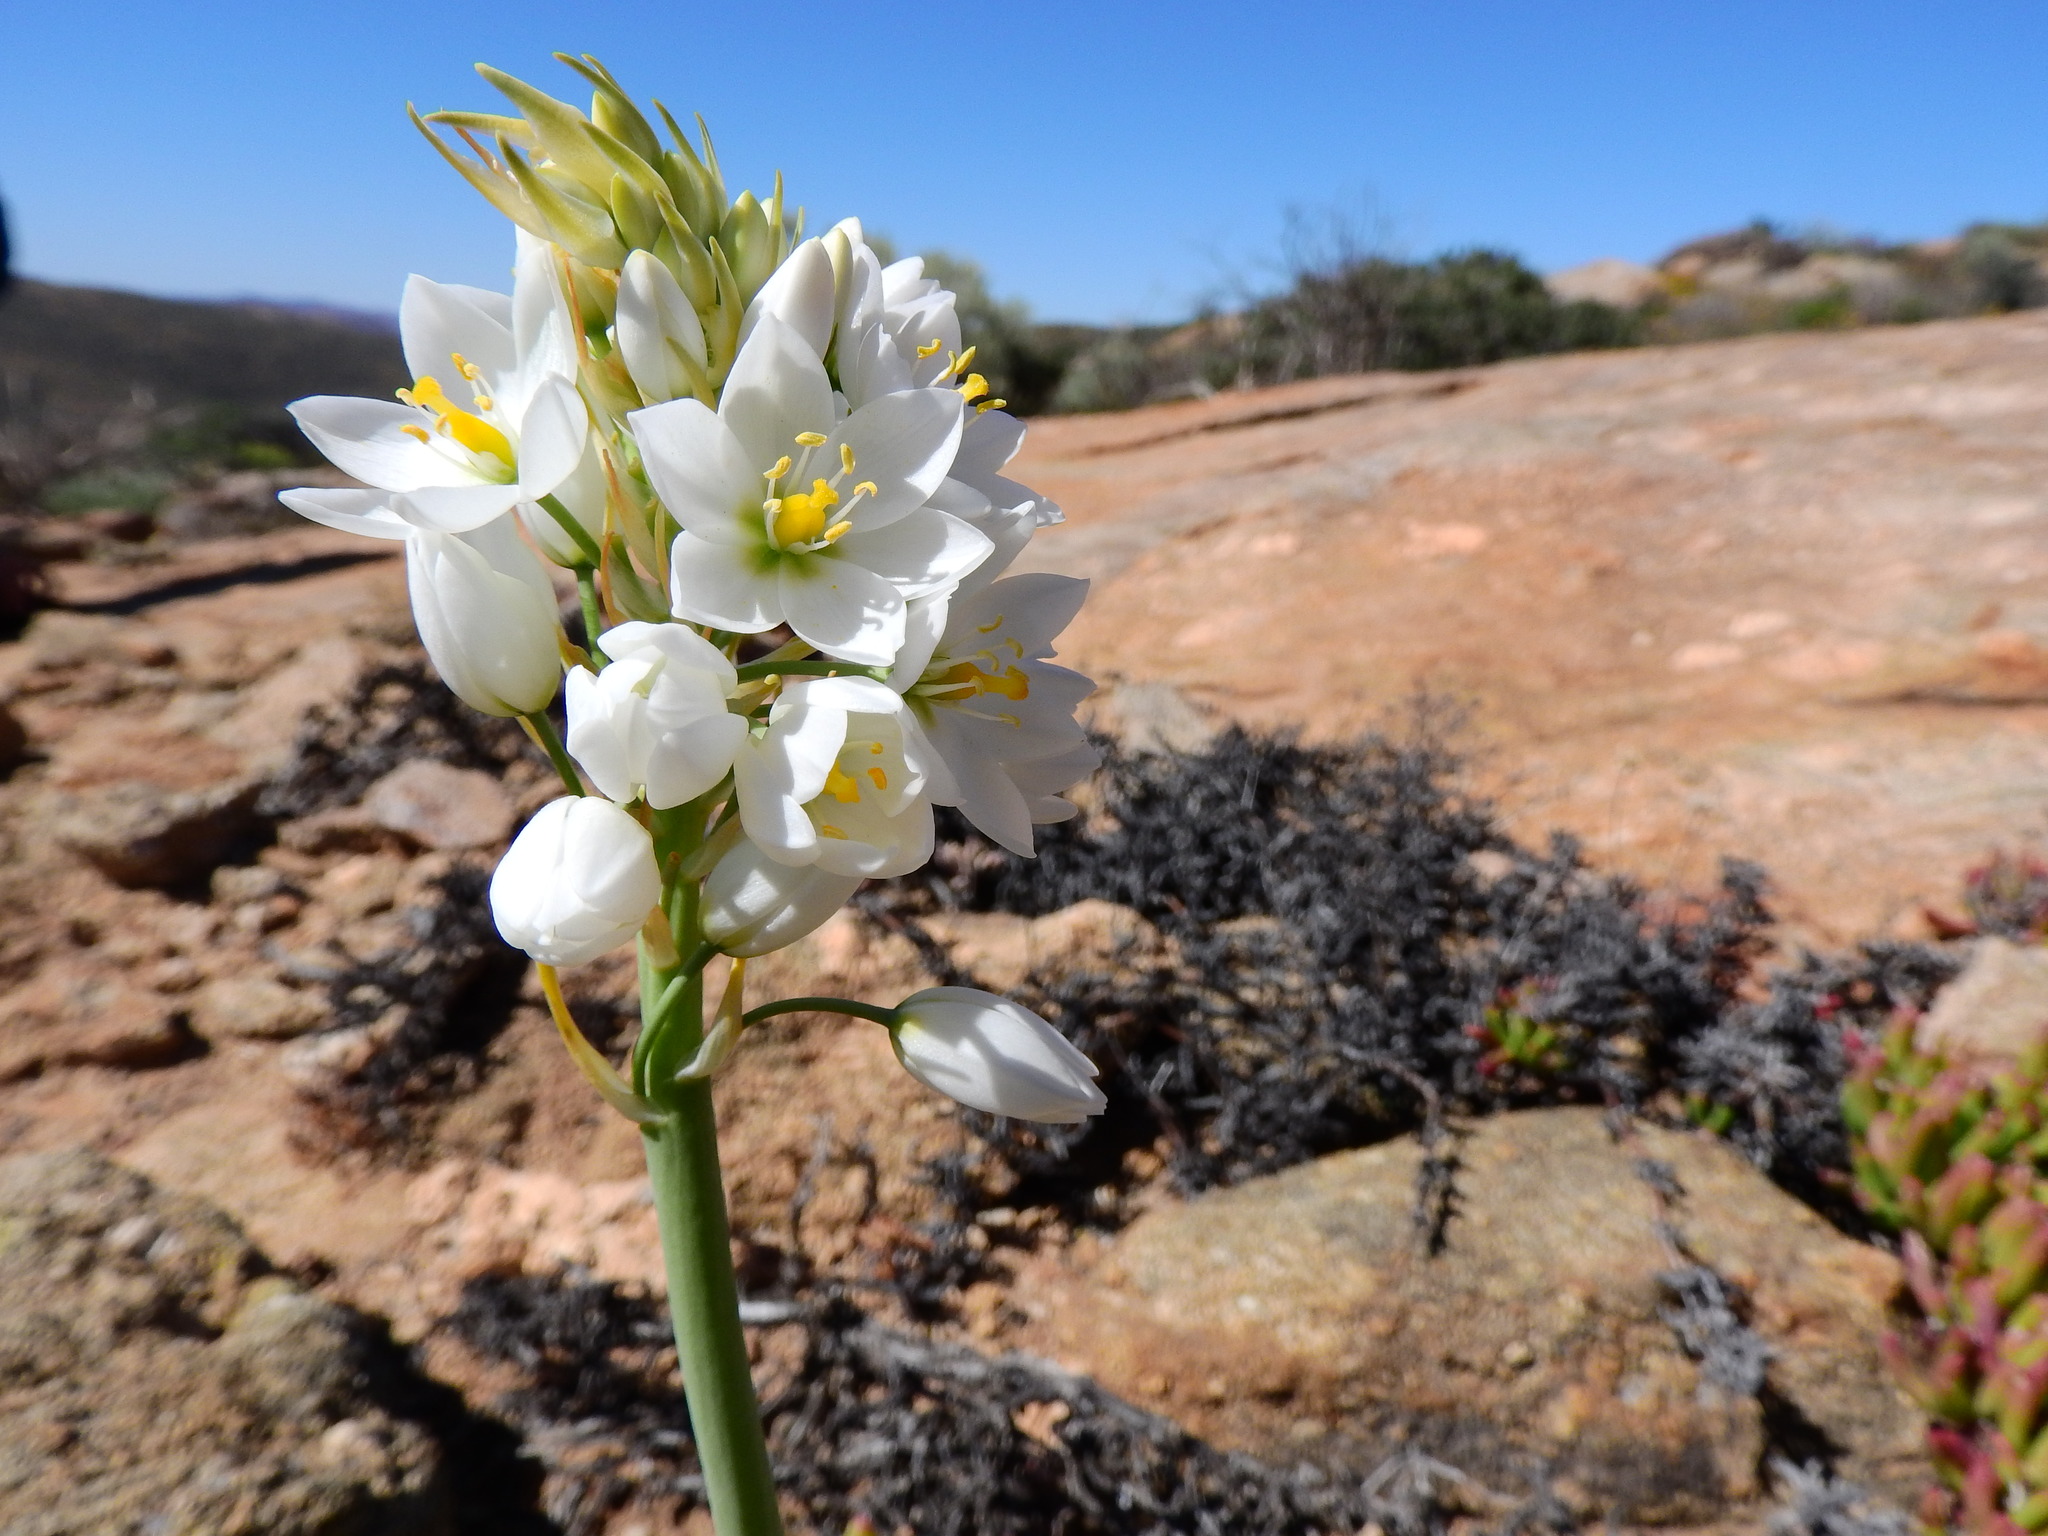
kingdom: Plantae
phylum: Tracheophyta
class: Liliopsida
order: Asparagales
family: Asparagaceae
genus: Ornithogalum
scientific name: Ornithogalum pruinosum
